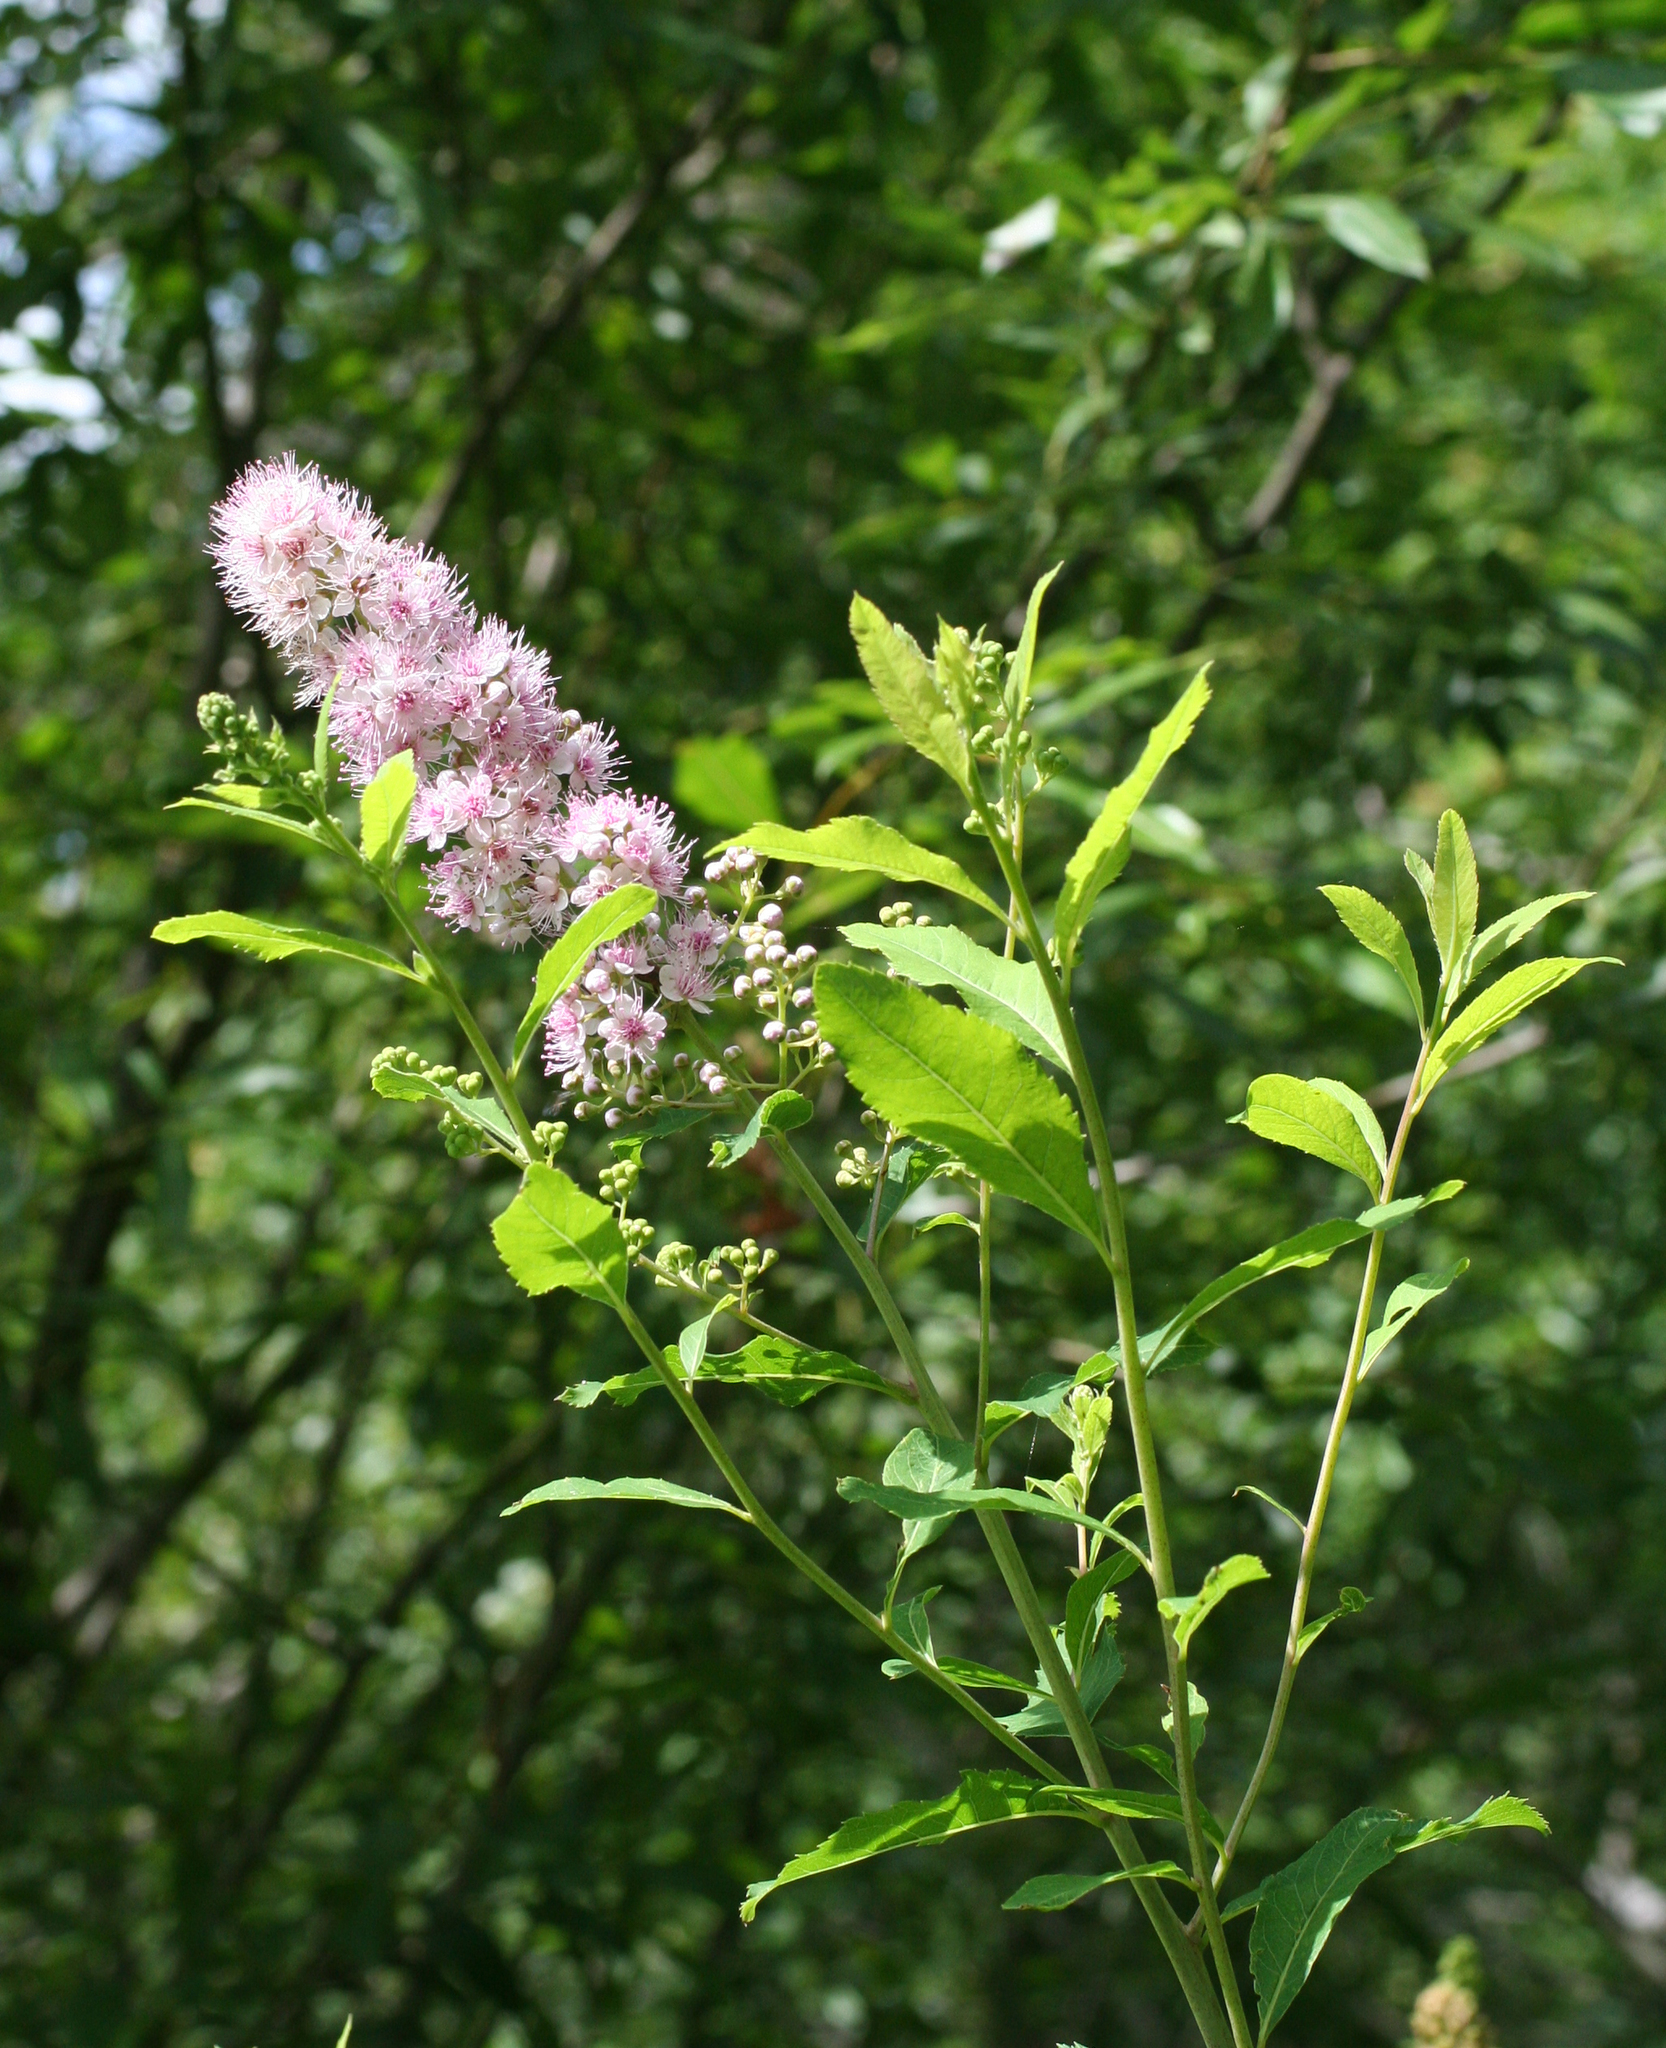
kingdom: Plantae
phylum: Tracheophyta
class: Magnoliopsida
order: Rosales
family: Rosaceae
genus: Spiraea
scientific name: Spiraea salicifolia
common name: Bridewort
